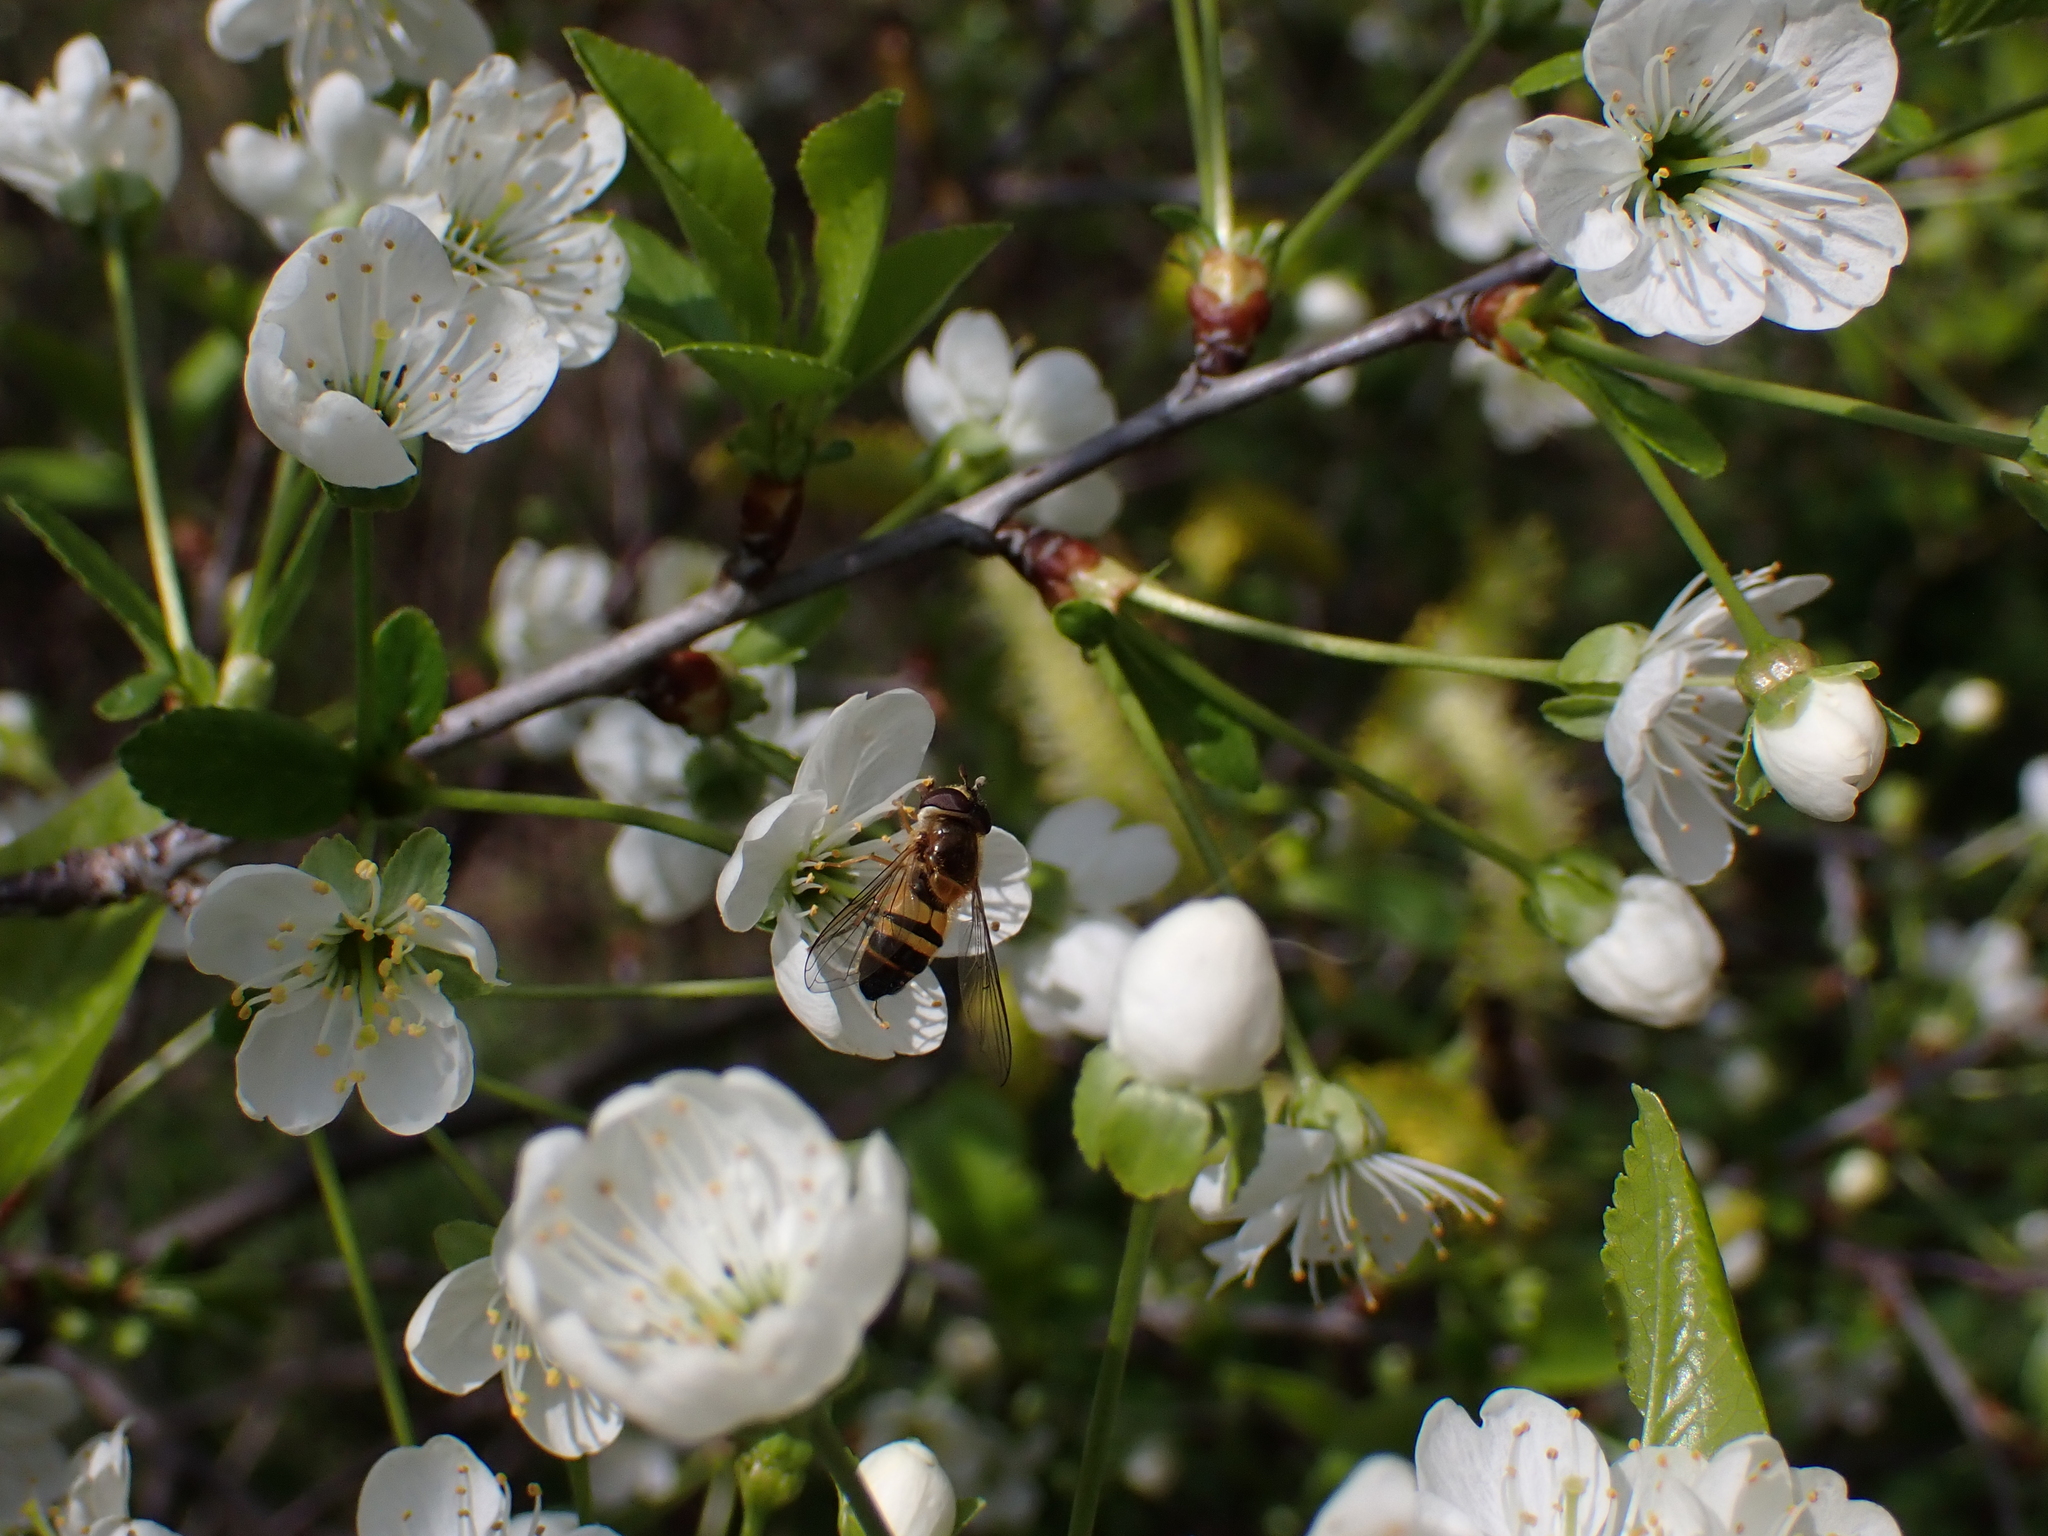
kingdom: Animalia
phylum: Arthropoda
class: Insecta
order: Diptera
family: Syrphidae
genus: Epistrophe
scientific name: Epistrophe eligans
